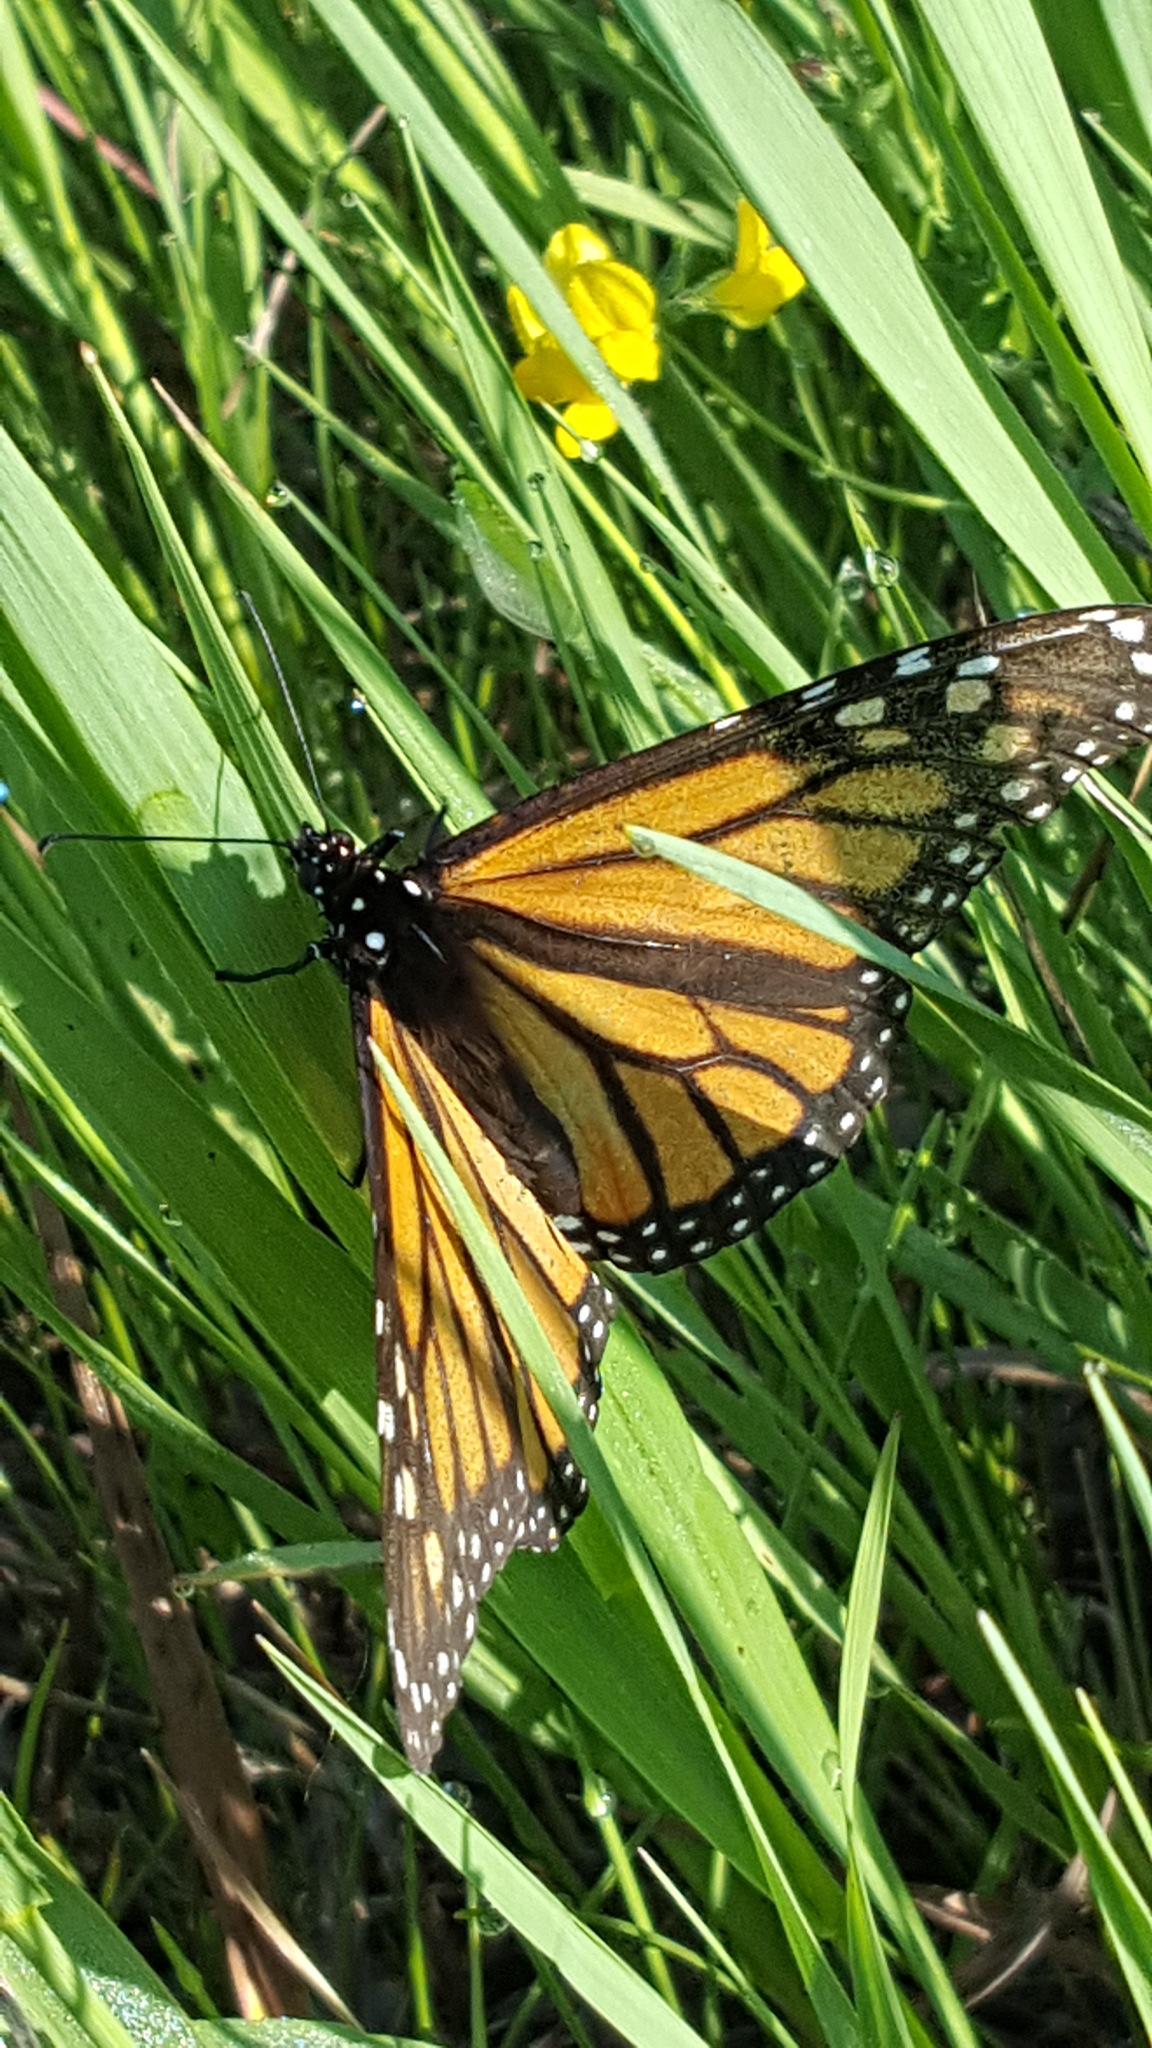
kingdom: Animalia
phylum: Arthropoda
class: Insecta
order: Lepidoptera
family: Nymphalidae
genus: Danaus
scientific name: Danaus plexippus
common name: Monarch
